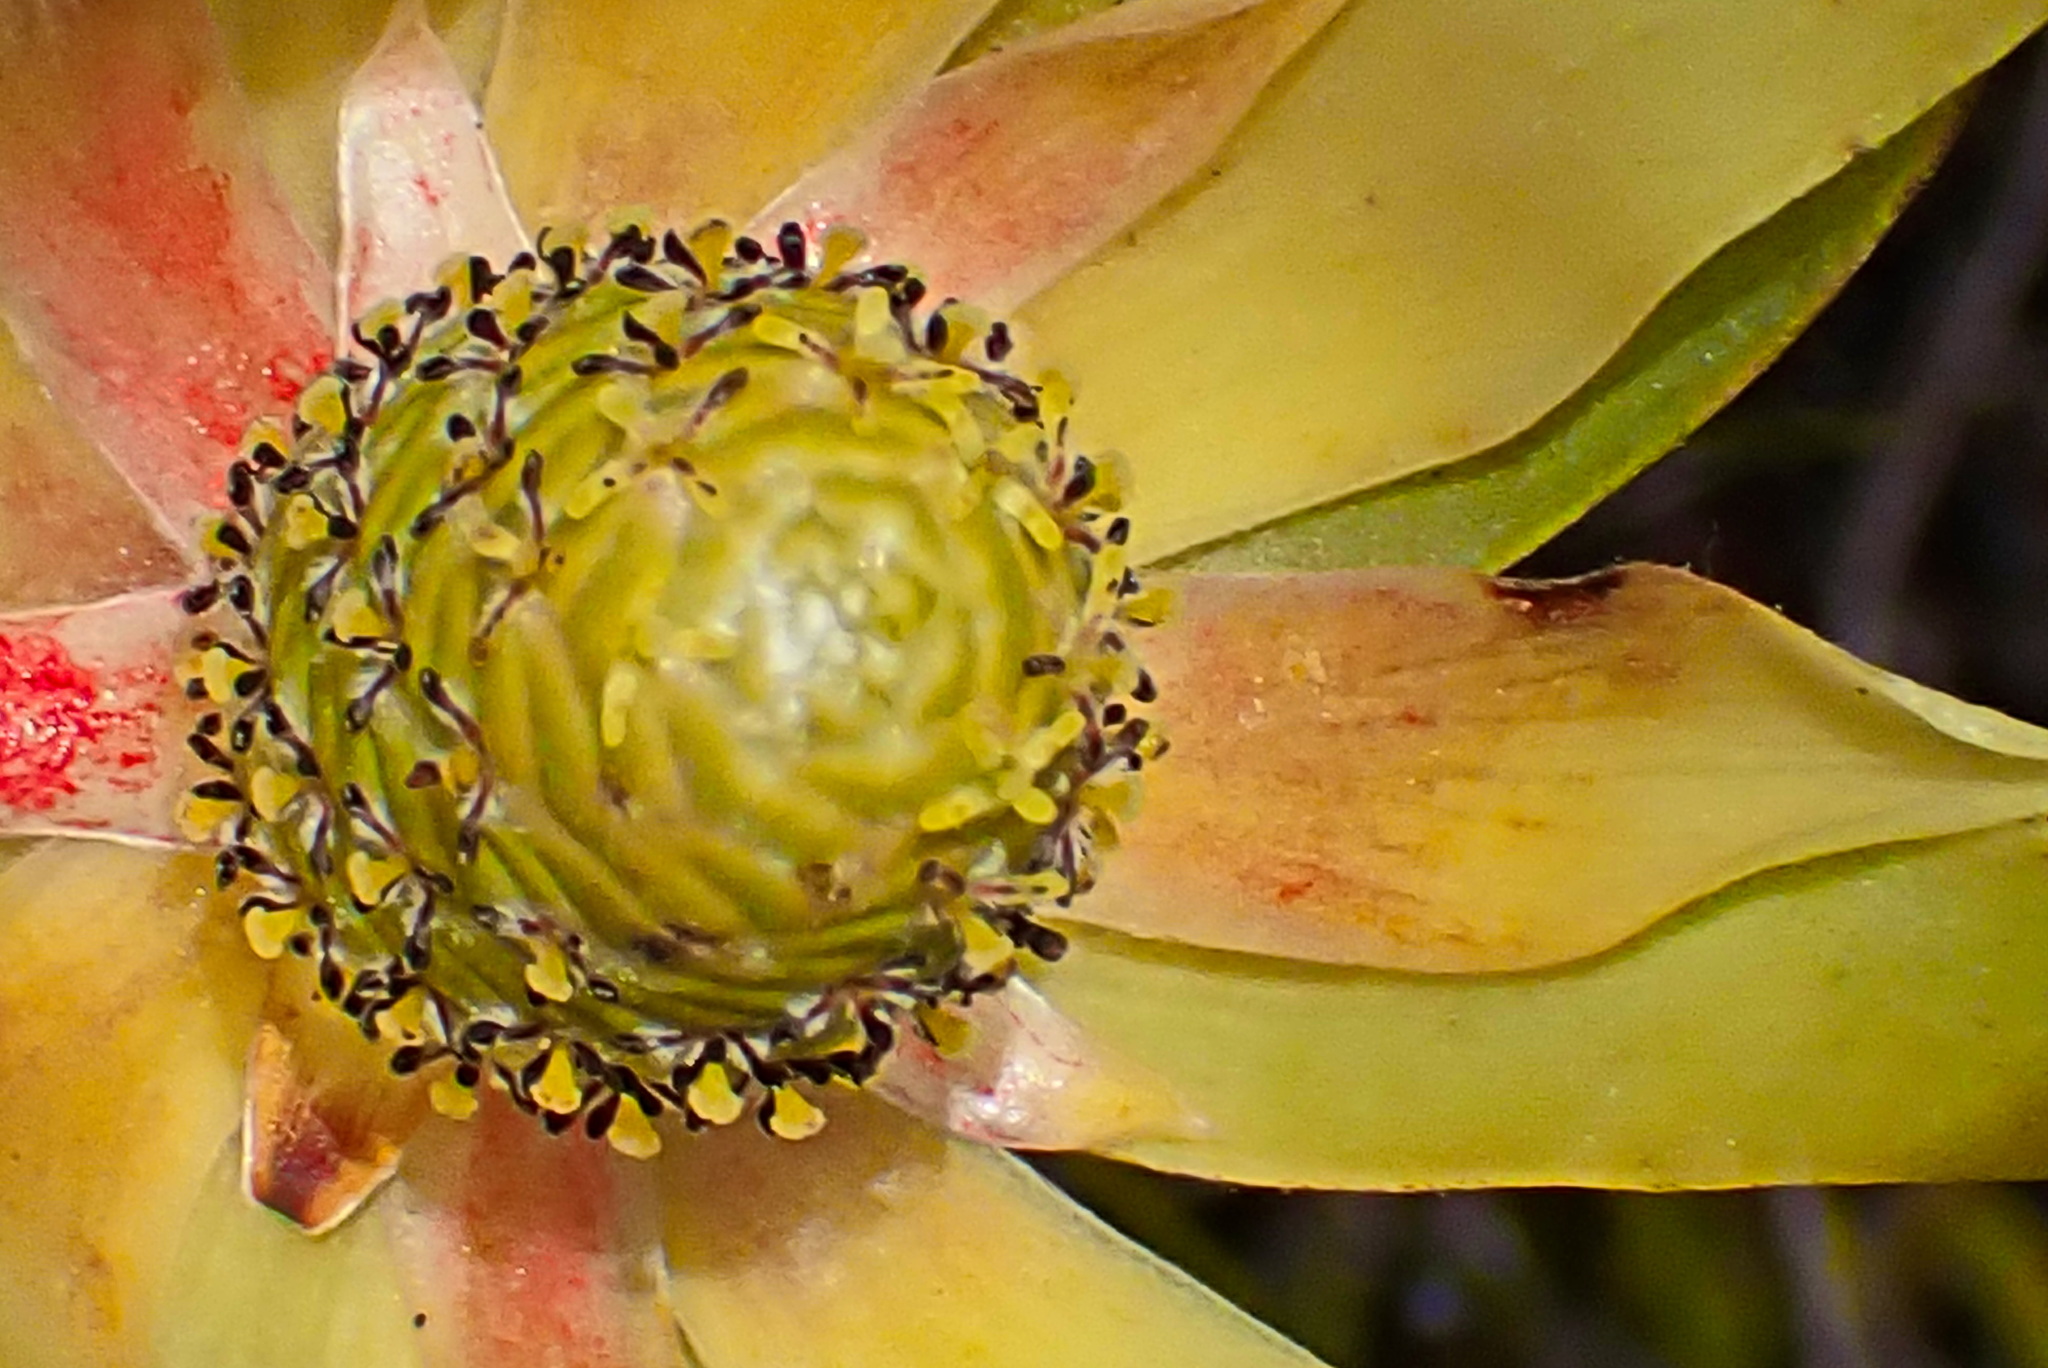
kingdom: Plantae
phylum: Tracheophyta
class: Magnoliopsida
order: Proteales
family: Proteaceae
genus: Leucadendron
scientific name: Leucadendron uliginosum
